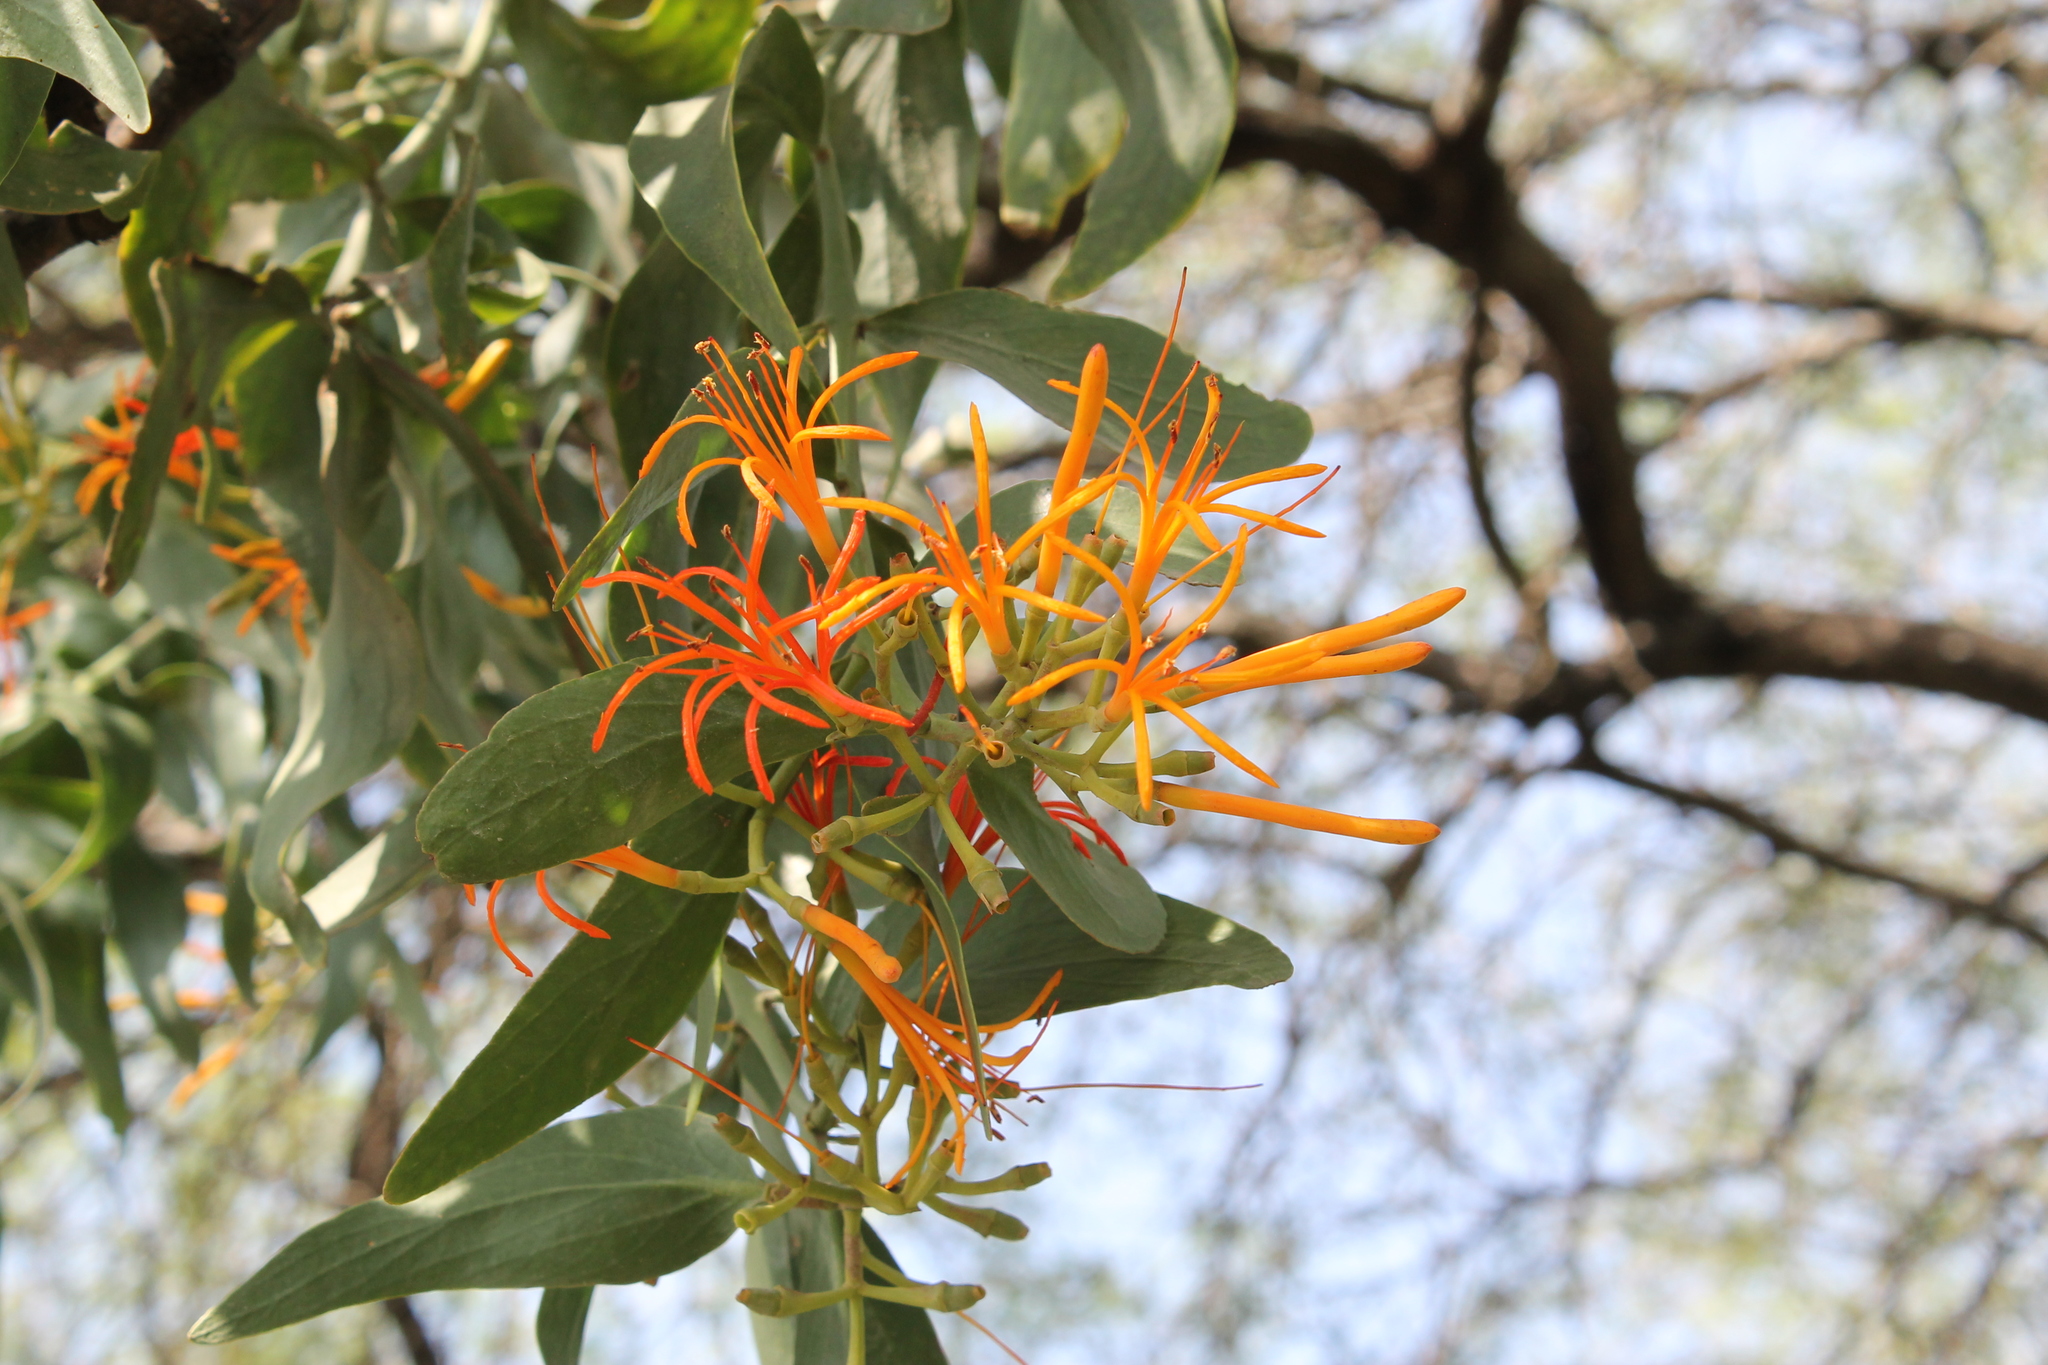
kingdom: Plantae
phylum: Tracheophyta
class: Magnoliopsida
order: Santalales
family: Loranthaceae
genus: Psittacanthus
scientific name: Psittacanthus calyculatus
